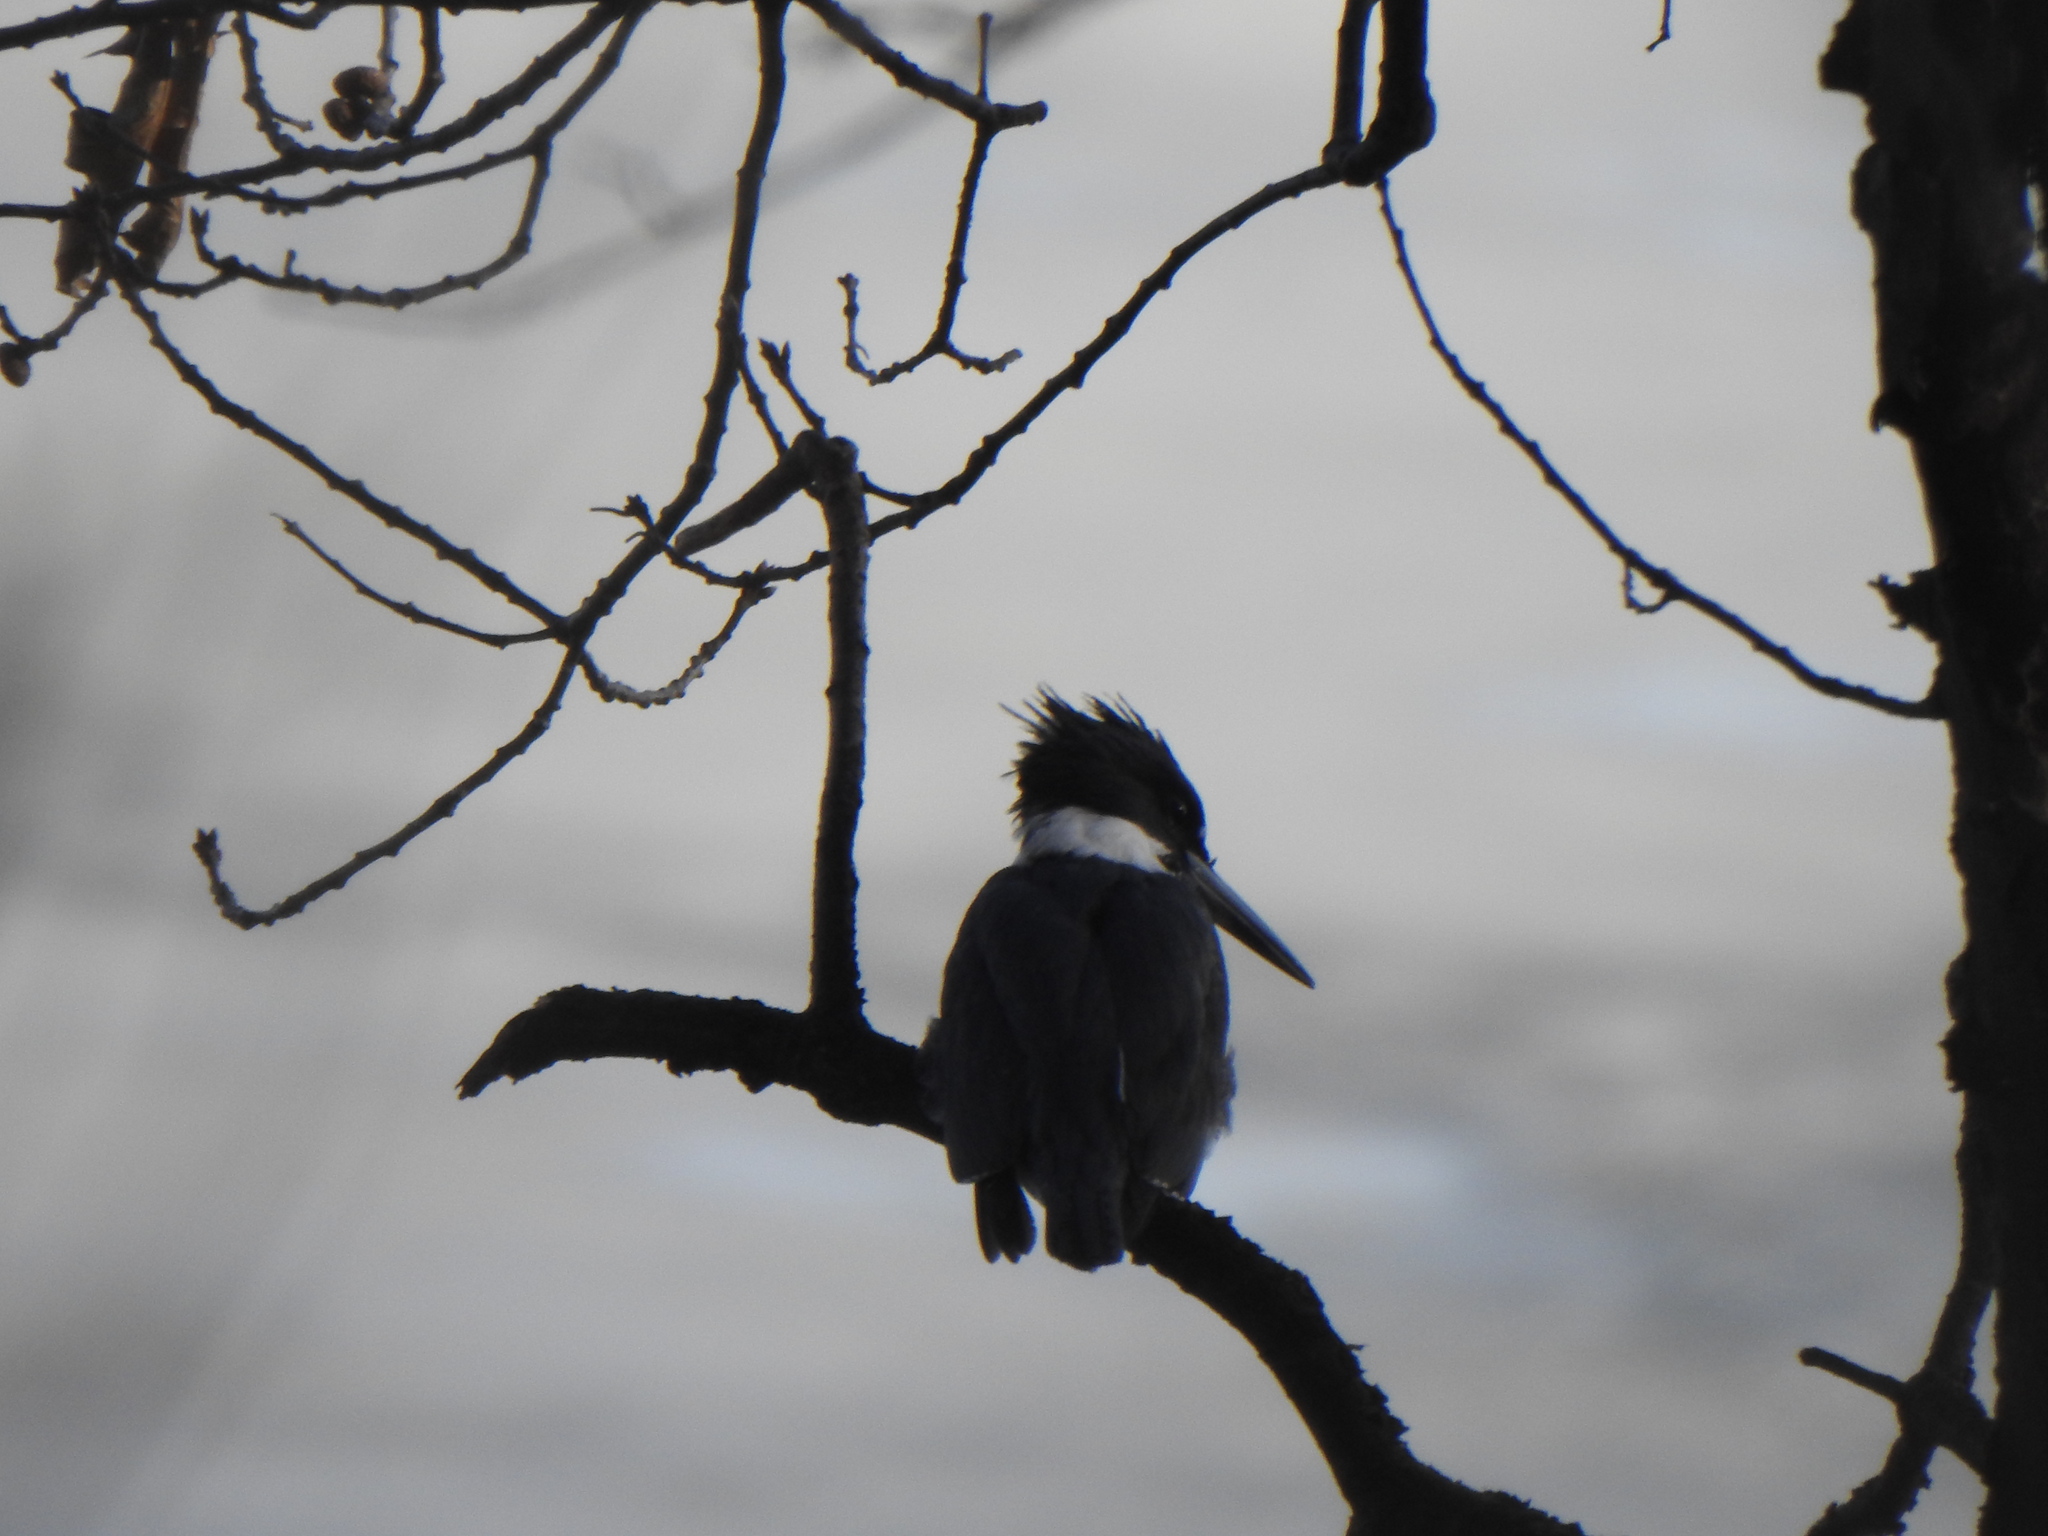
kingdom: Animalia
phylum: Chordata
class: Aves
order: Coraciiformes
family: Alcedinidae
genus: Megaceryle
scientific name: Megaceryle alcyon
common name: Belted kingfisher
